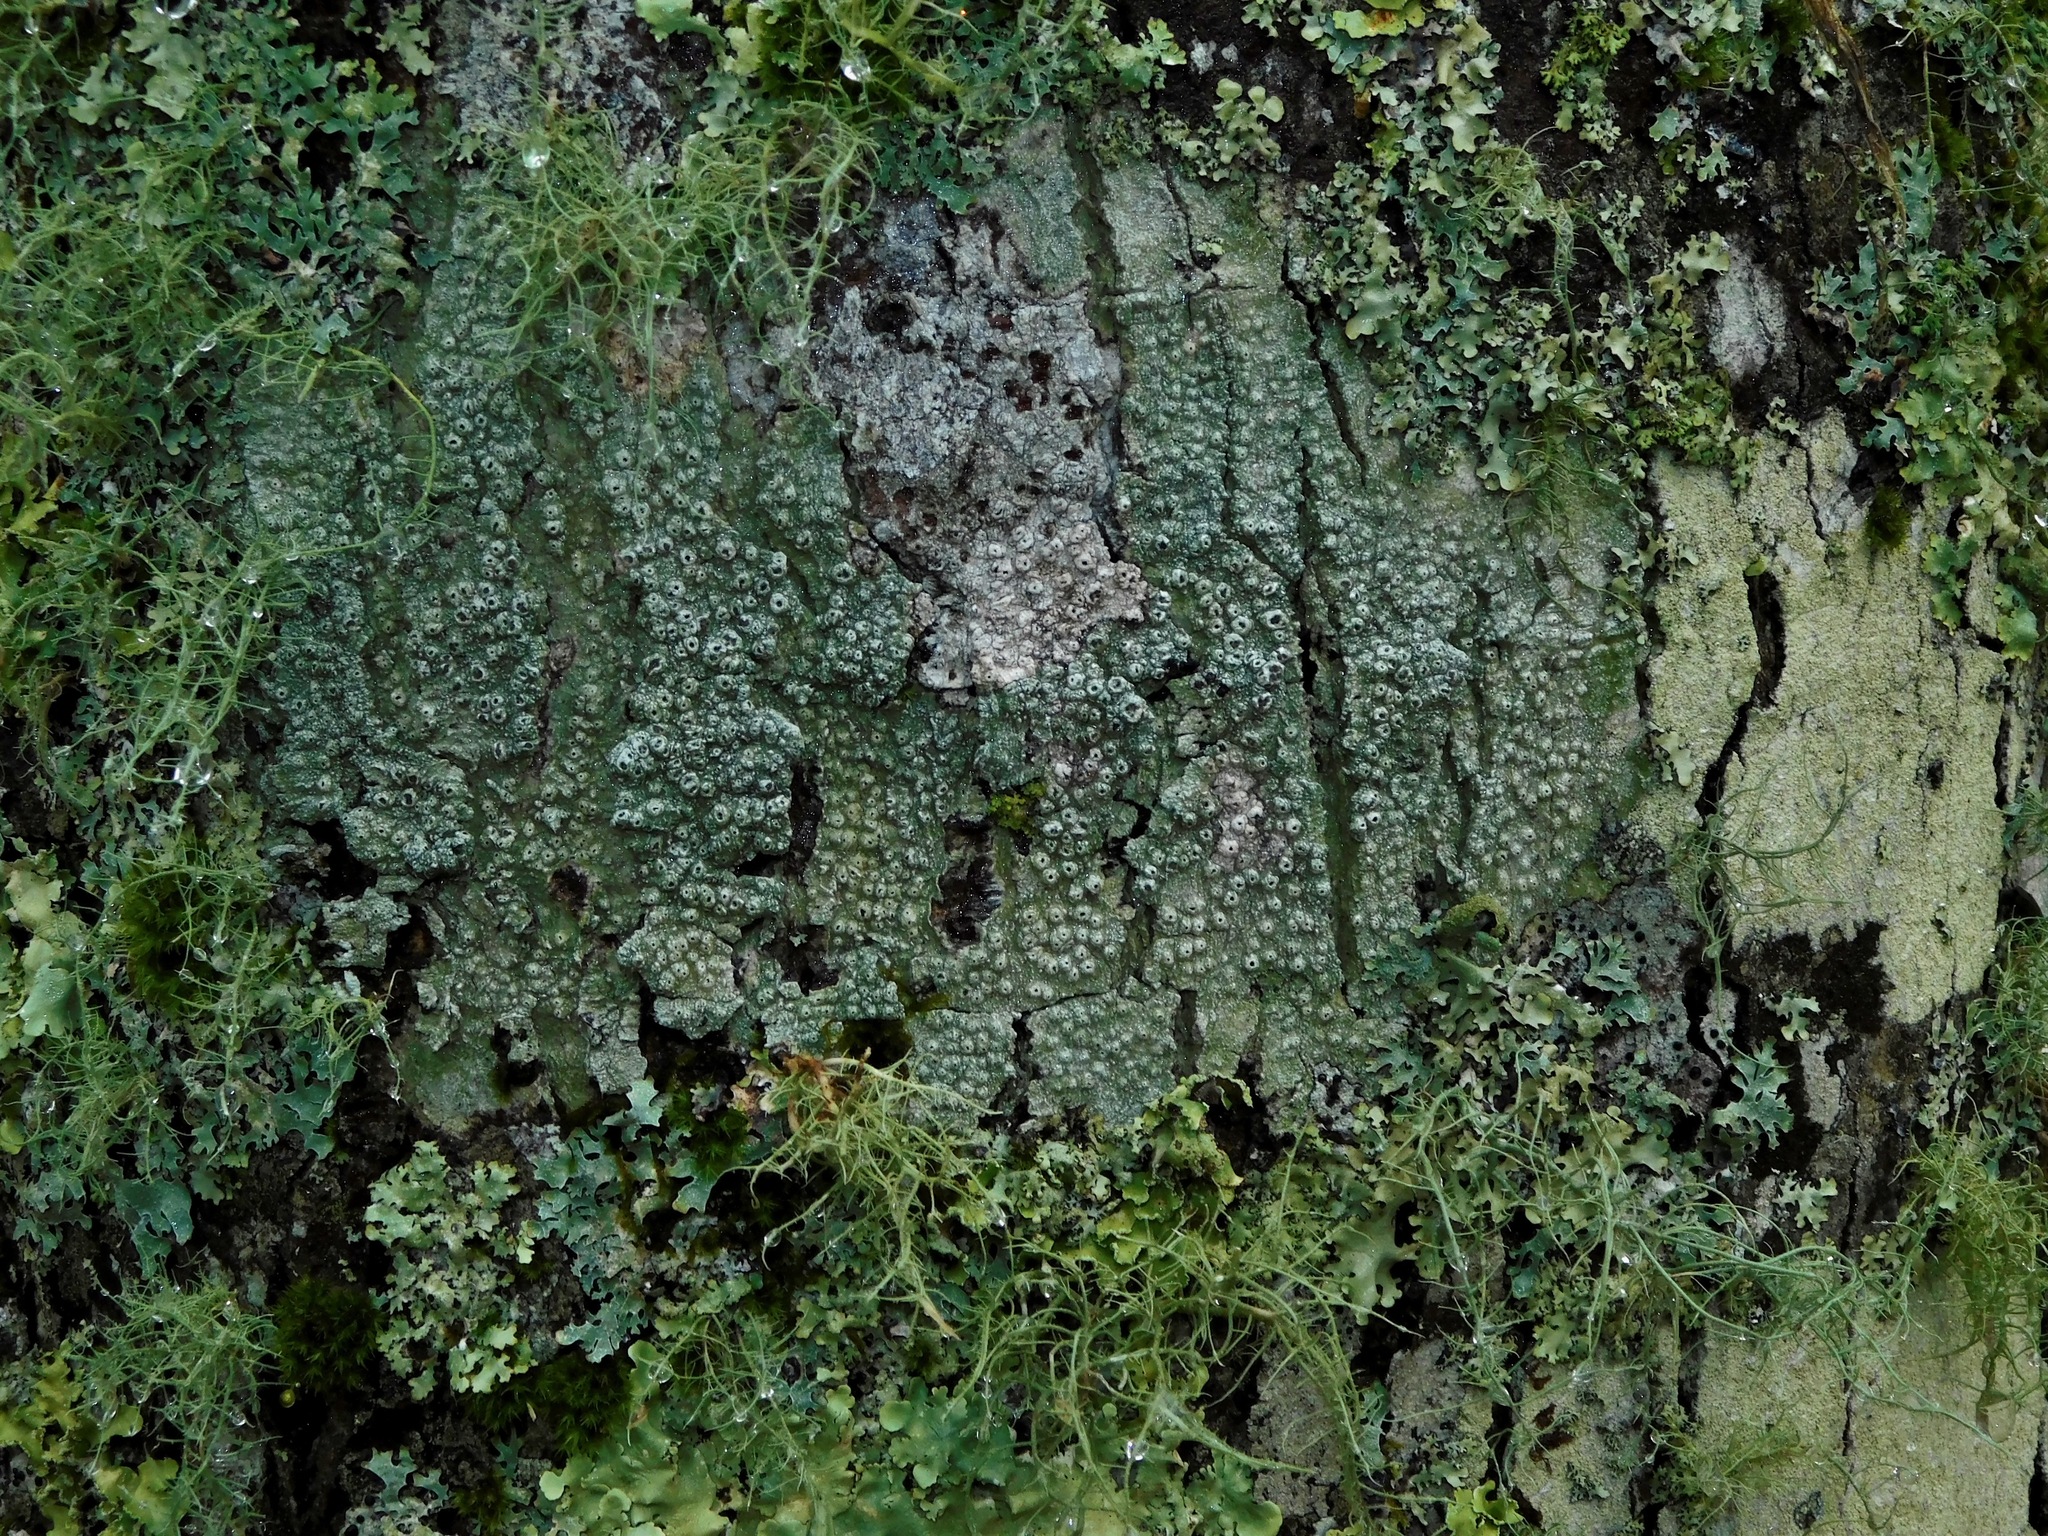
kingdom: Fungi
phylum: Ascomycota
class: Lecanoromycetes
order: Pertusariales
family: Pertusariaceae
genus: Pertusaria
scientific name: Pertusaria propinqua
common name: False flasks
